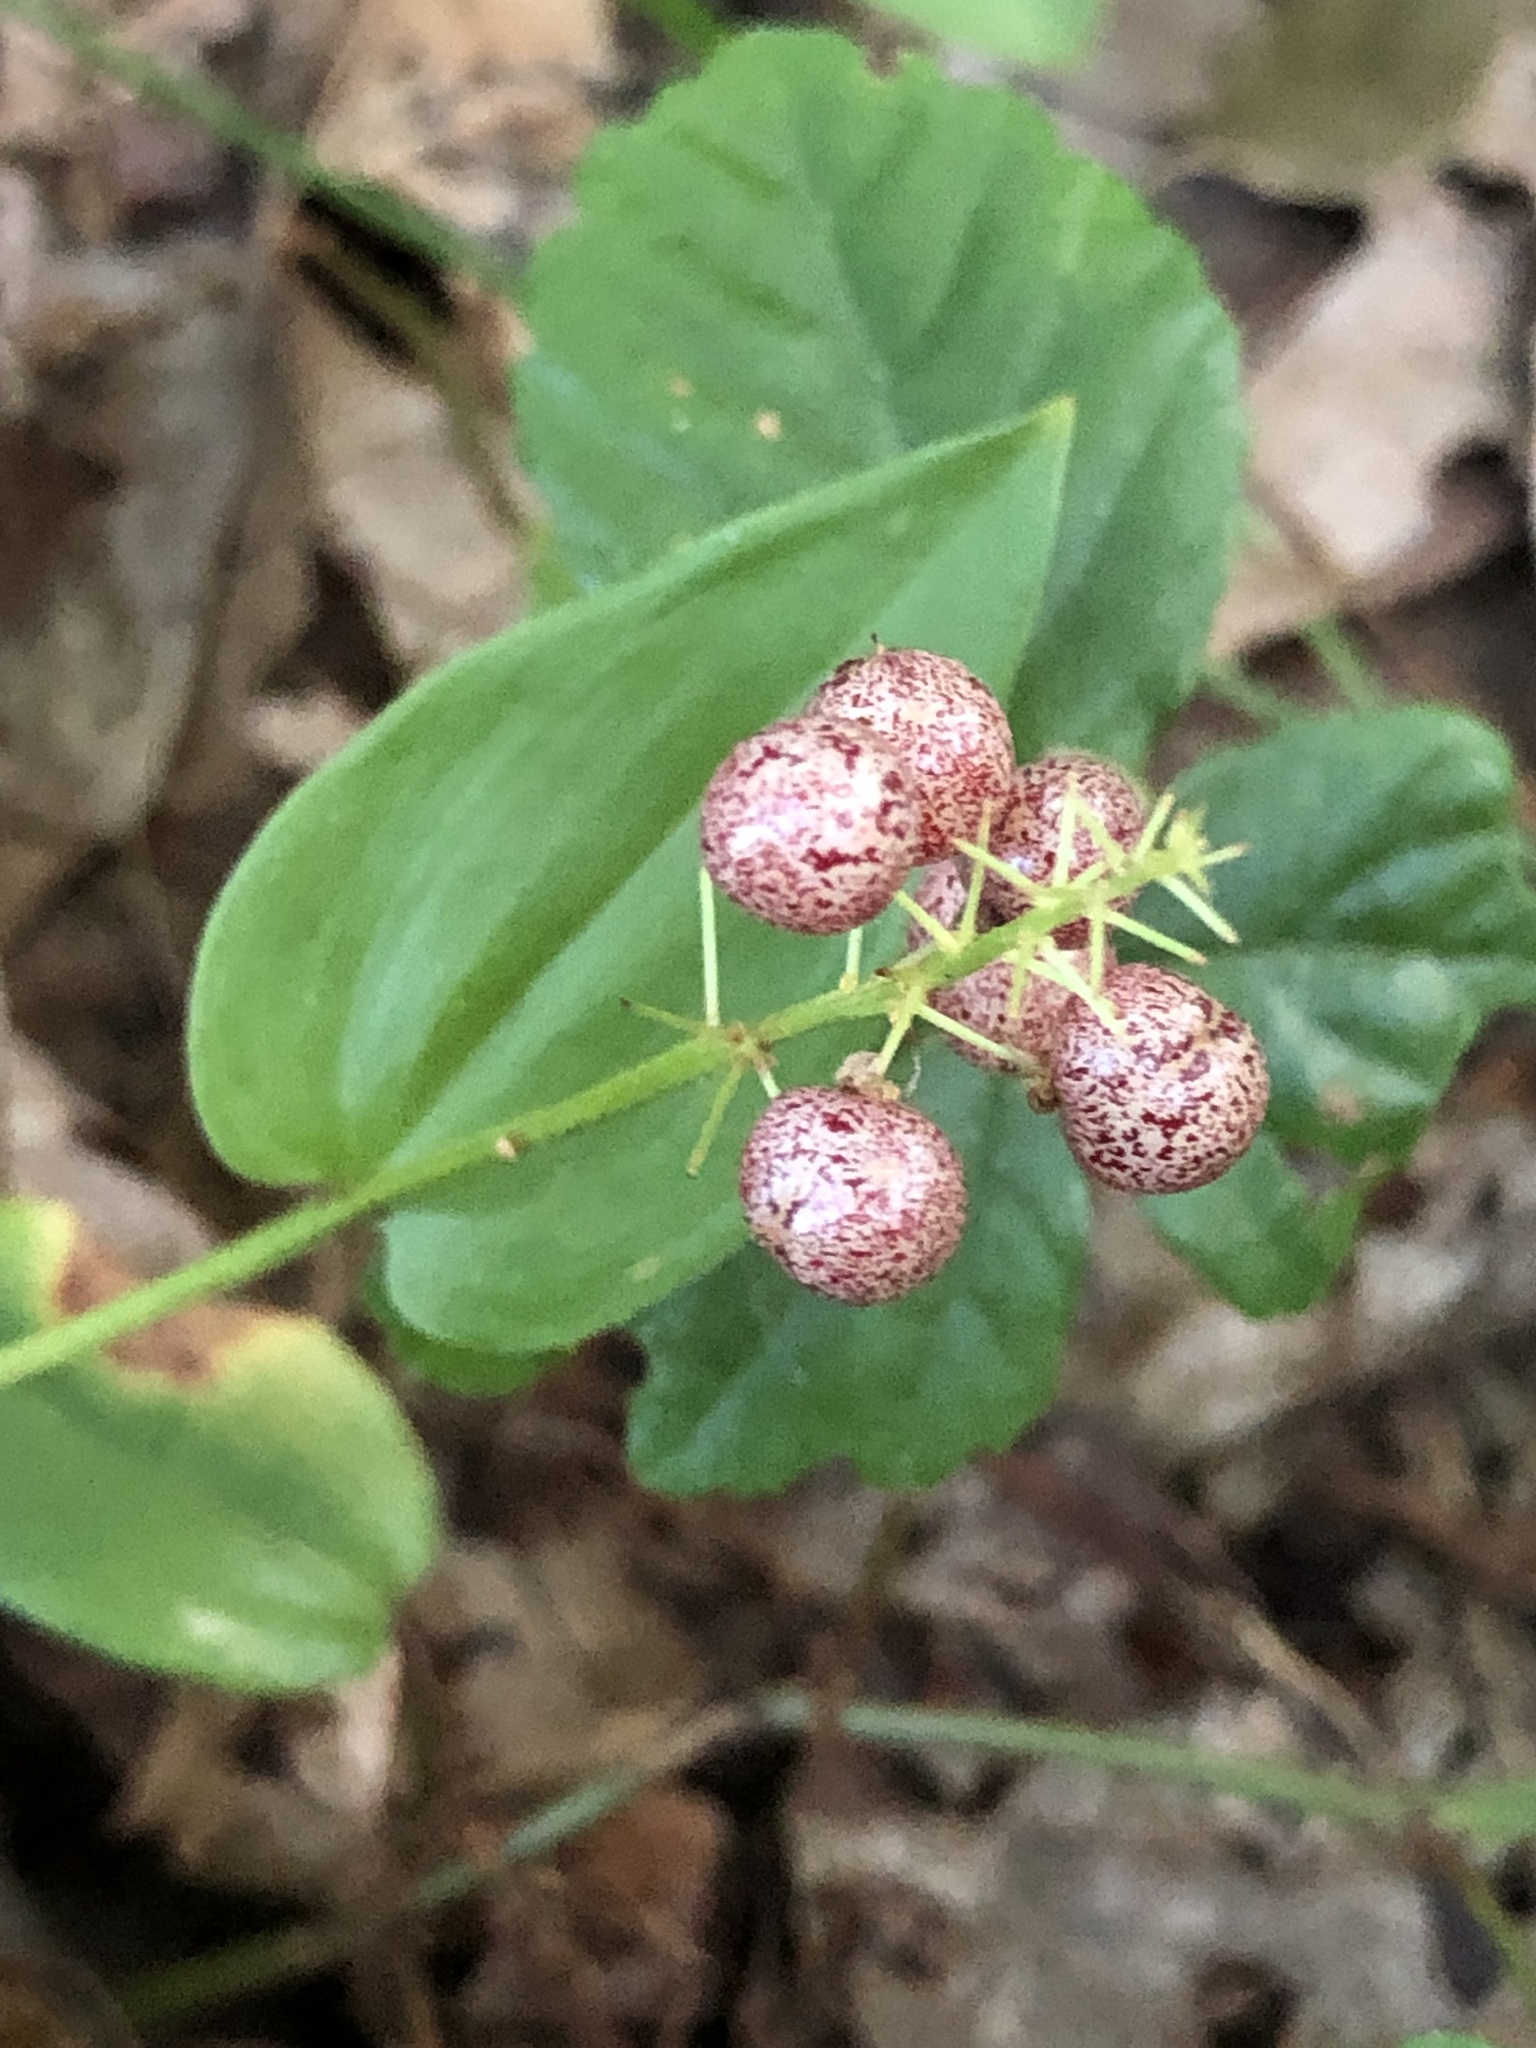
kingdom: Plantae
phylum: Tracheophyta
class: Liliopsida
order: Asparagales
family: Asparagaceae
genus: Maianthemum
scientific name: Maianthemum canadense
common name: False lily-of-the-valley
